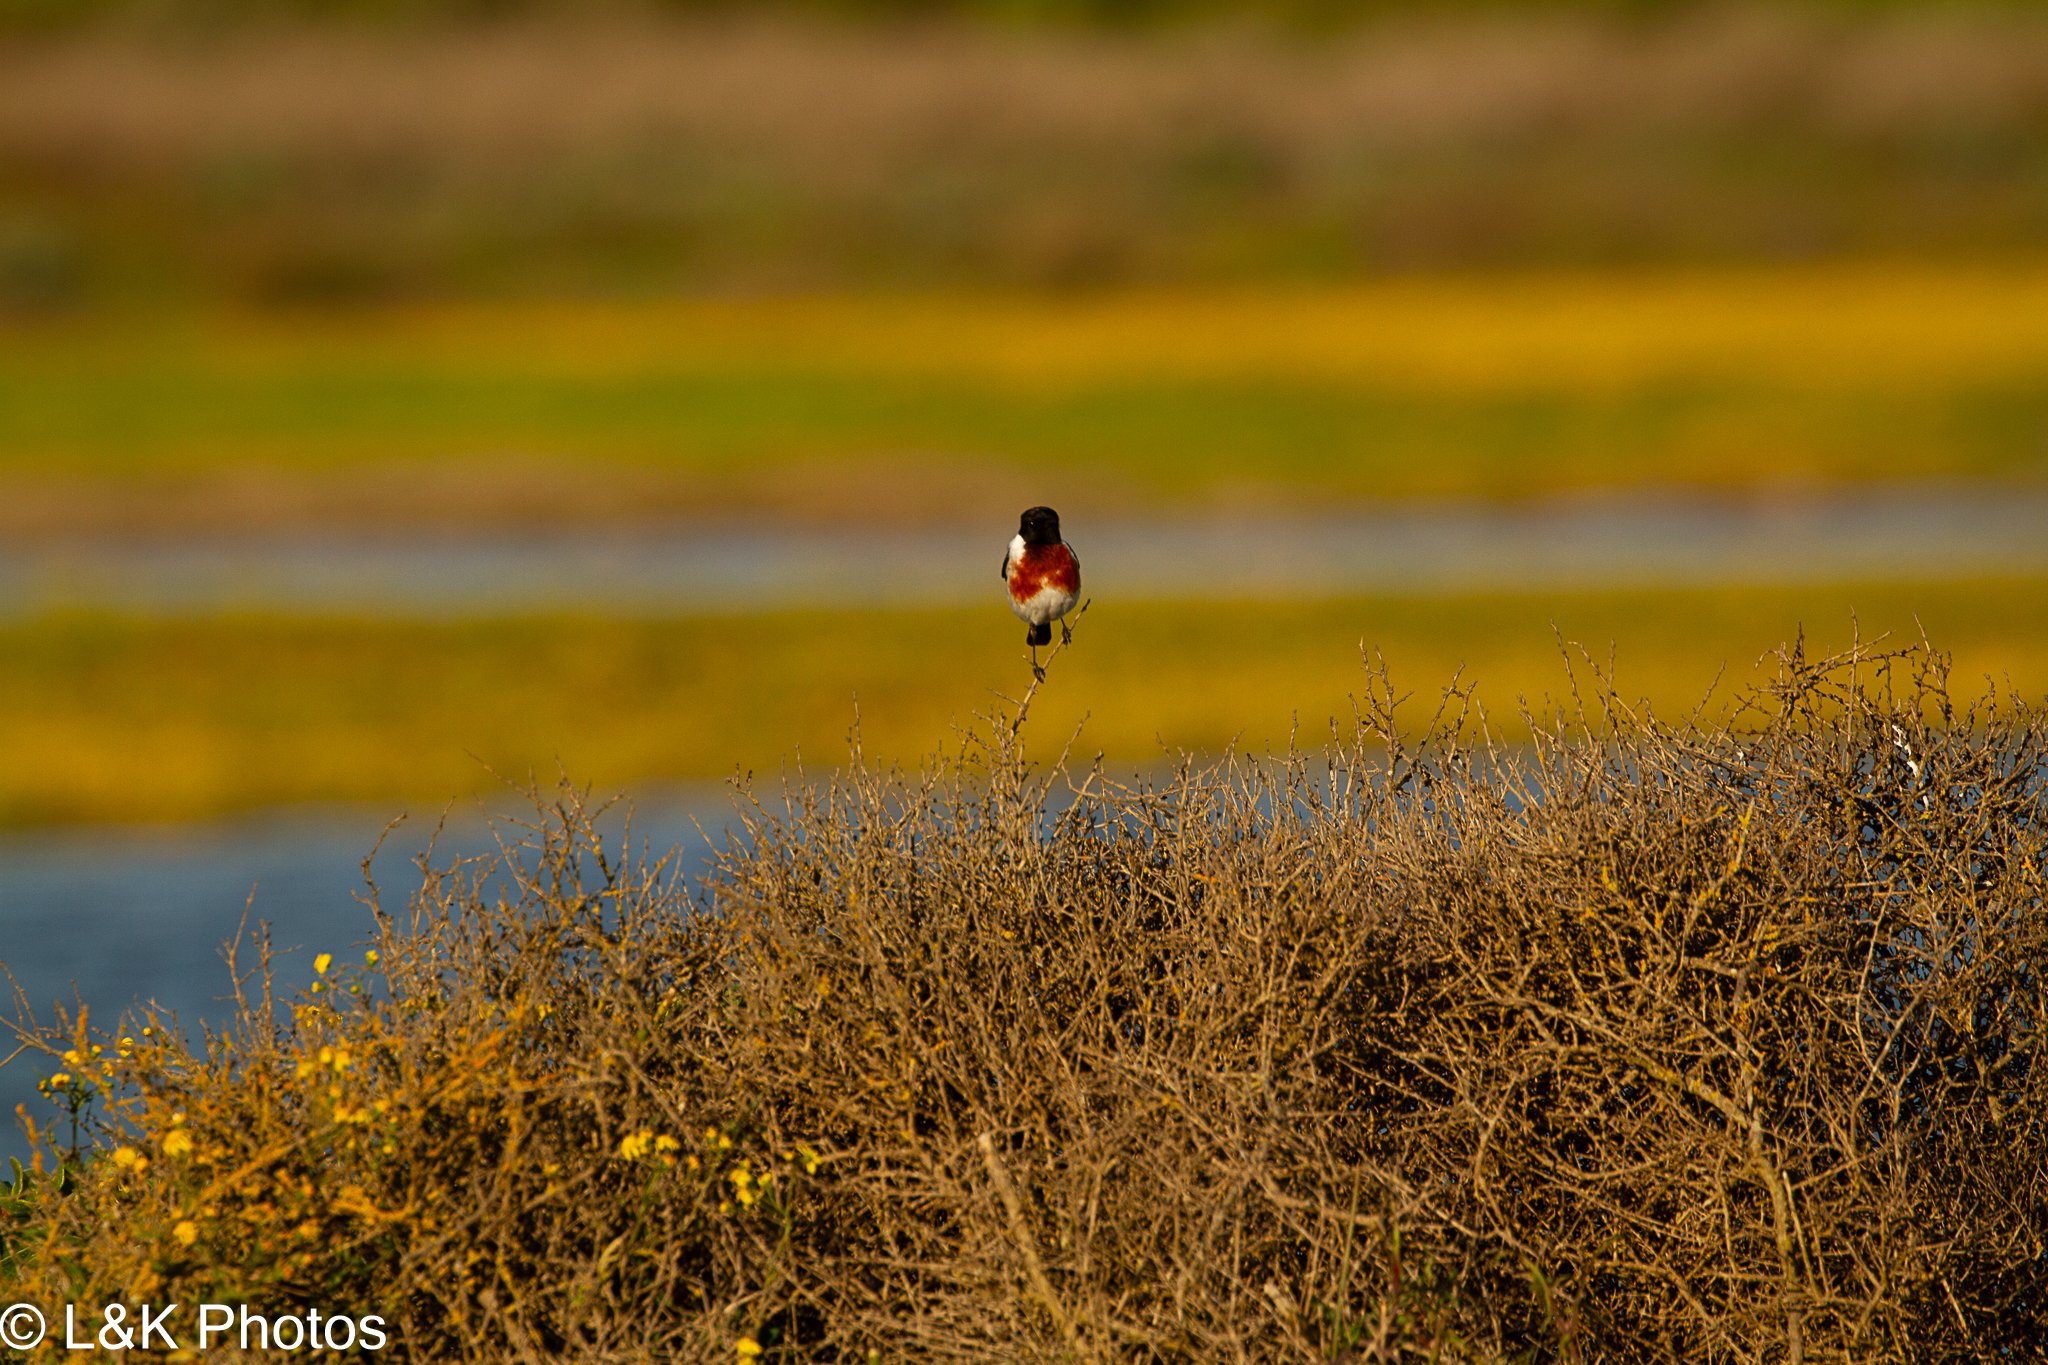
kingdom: Animalia
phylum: Chordata
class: Aves
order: Passeriformes
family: Muscicapidae
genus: Saxicola
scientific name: Saxicola torquatus
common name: African stonechat
